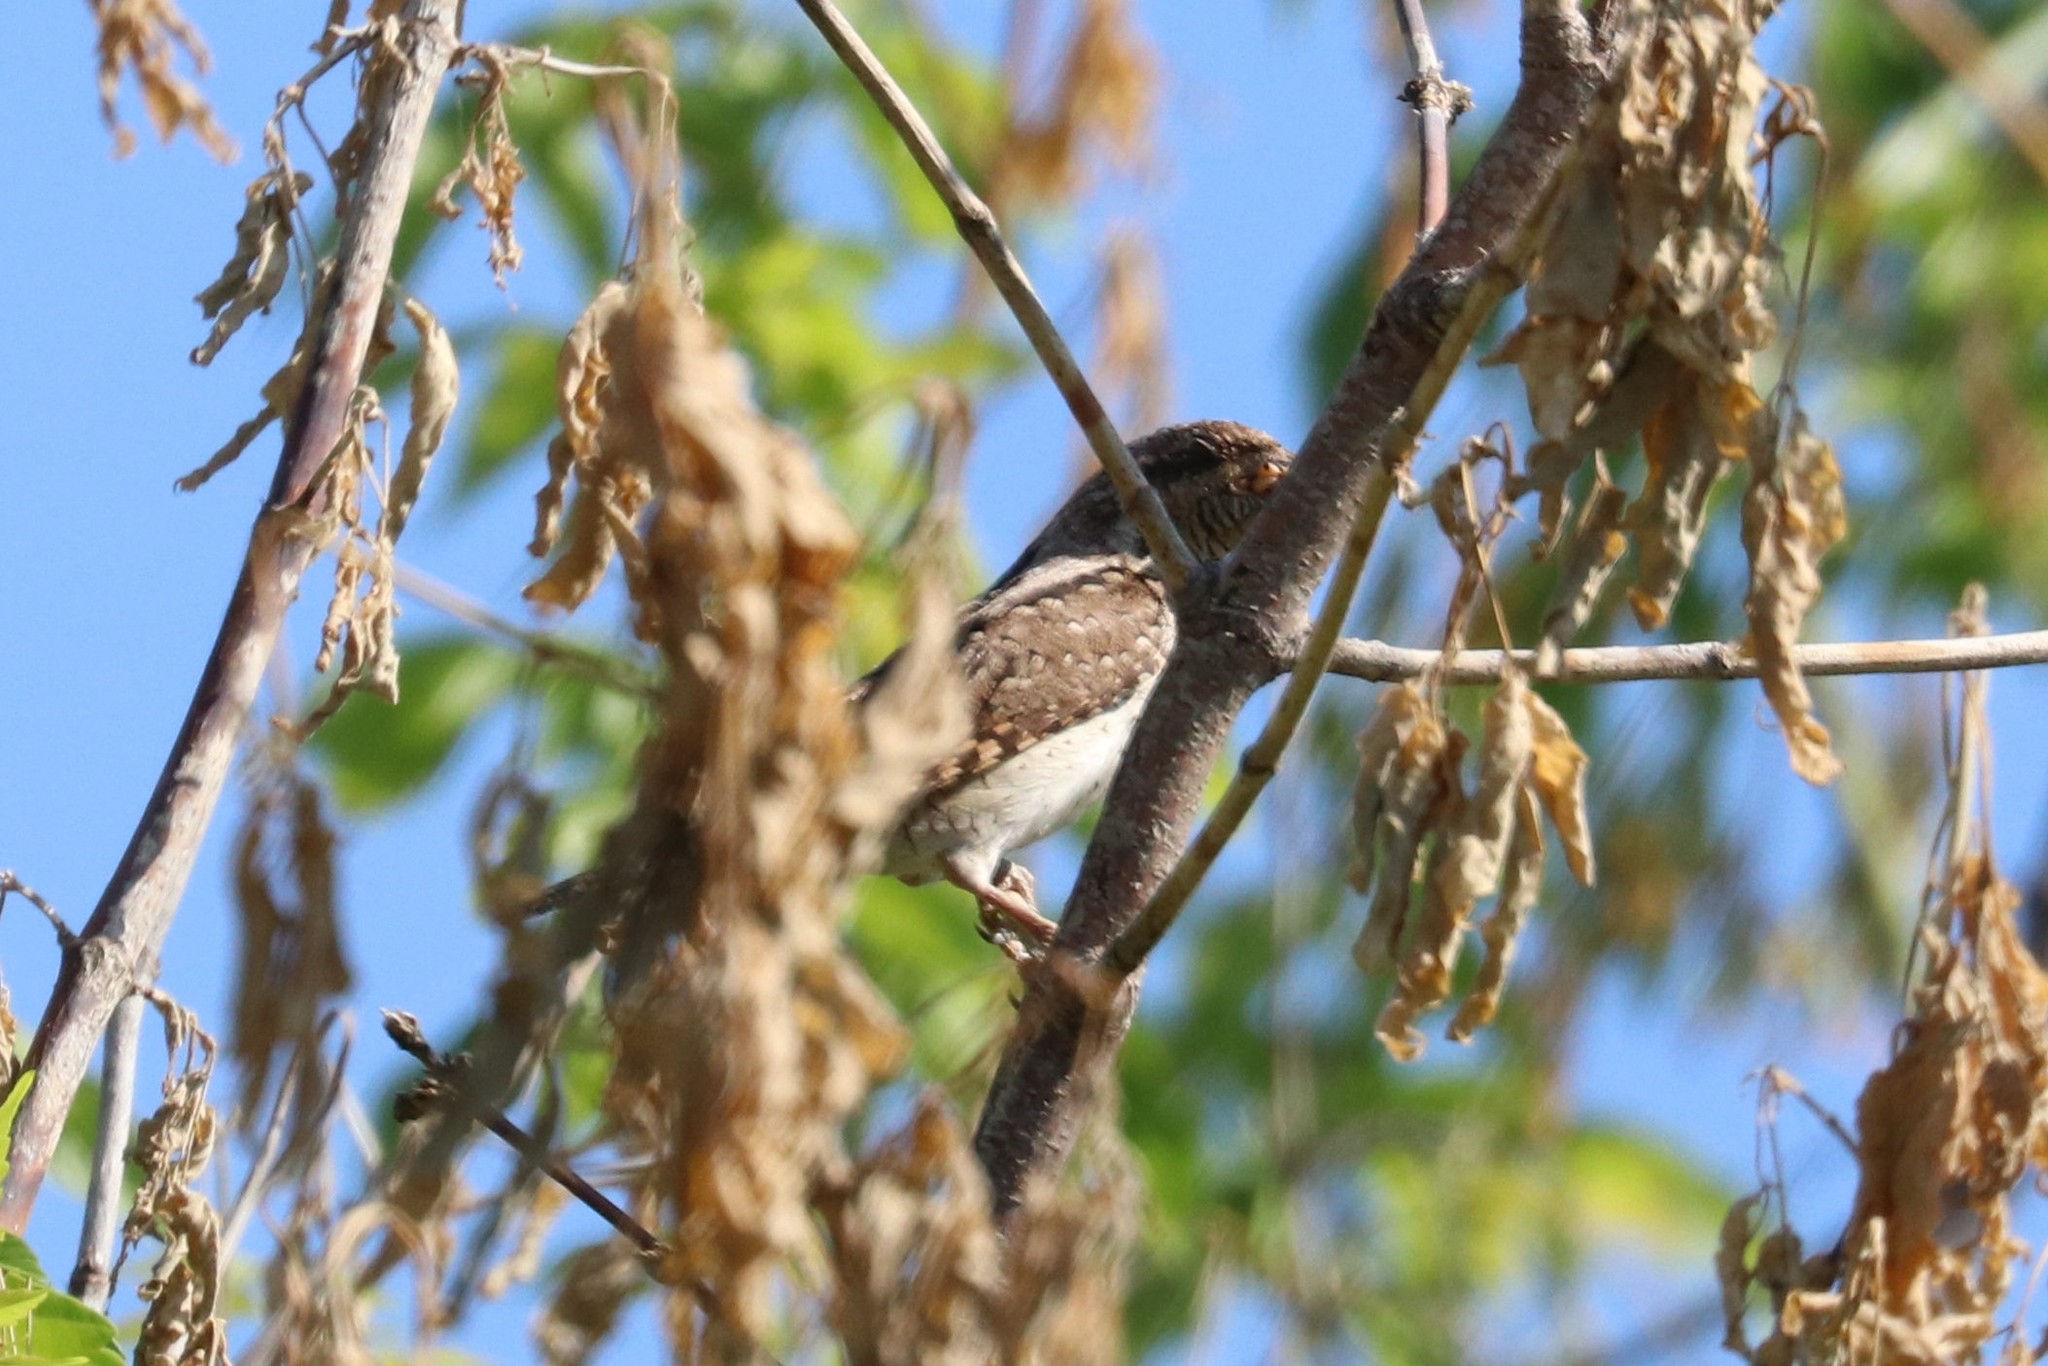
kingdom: Animalia
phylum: Chordata
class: Aves
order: Piciformes
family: Picidae
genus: Jynx
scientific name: Jynx torquilla
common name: Eurasian wryneck
